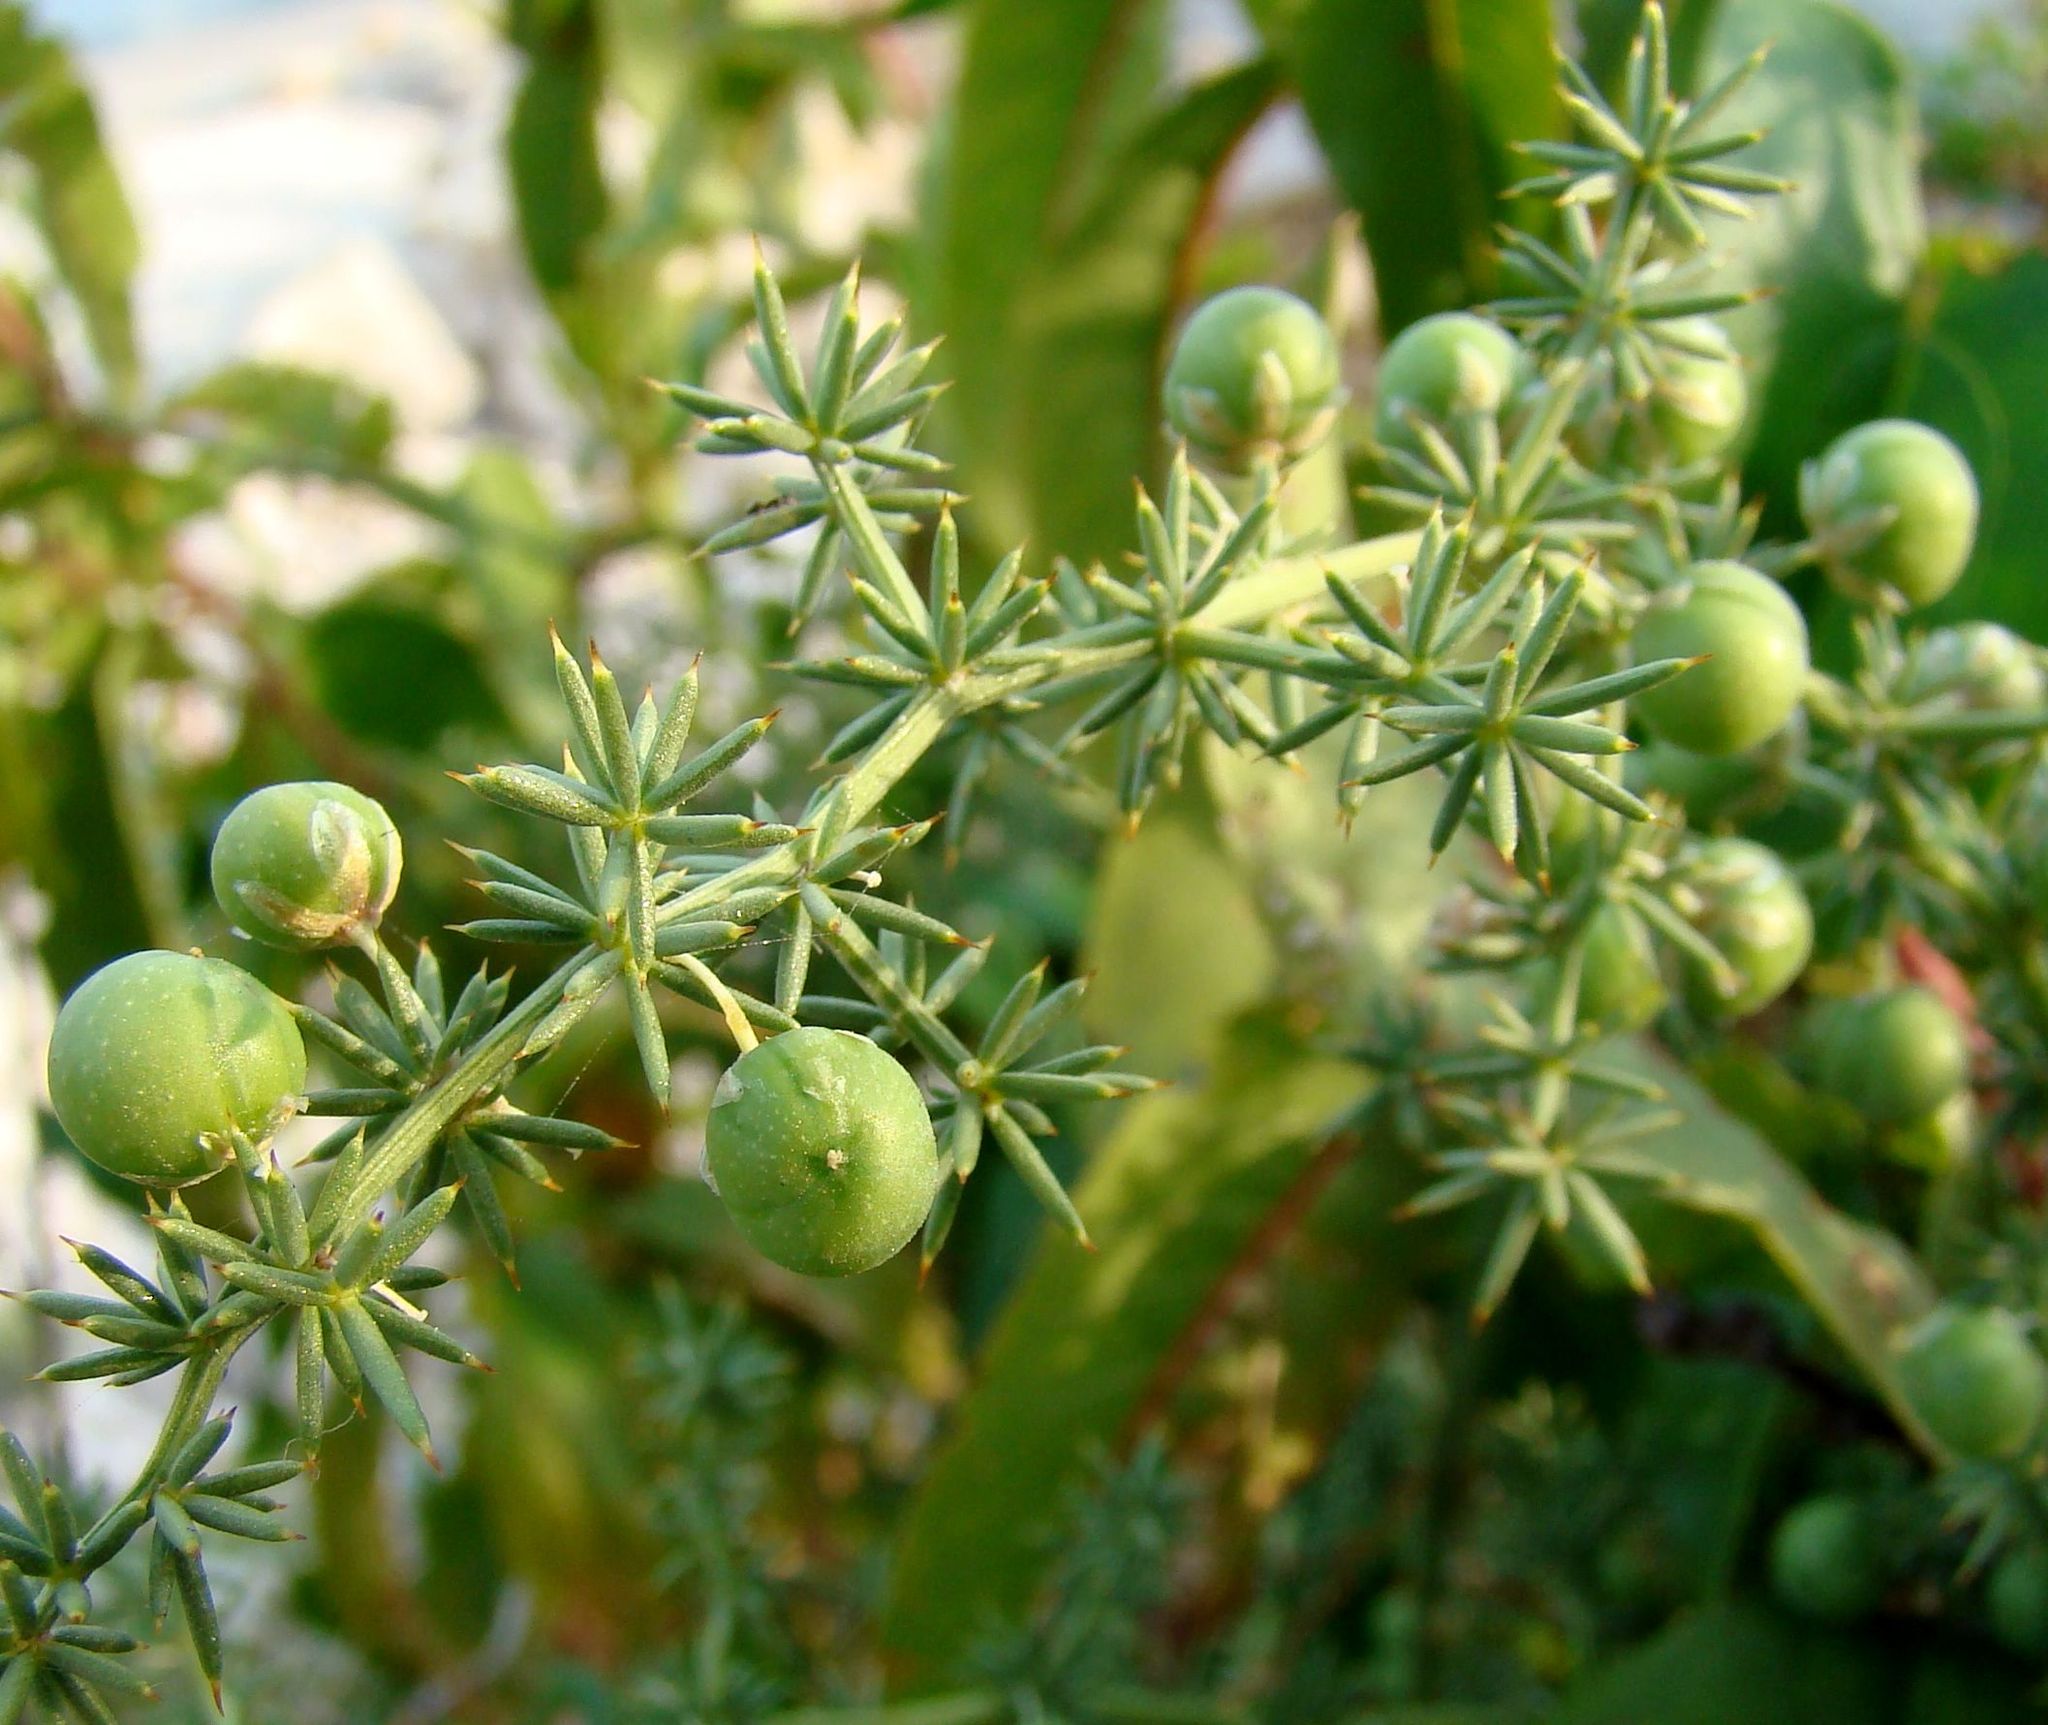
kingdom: Plantae
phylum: Tracheophyta
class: Liliopsida
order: Asparagales
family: Asparagaceae
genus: Asparagus
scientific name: Asparagus acutifolius
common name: Wild asparagus
